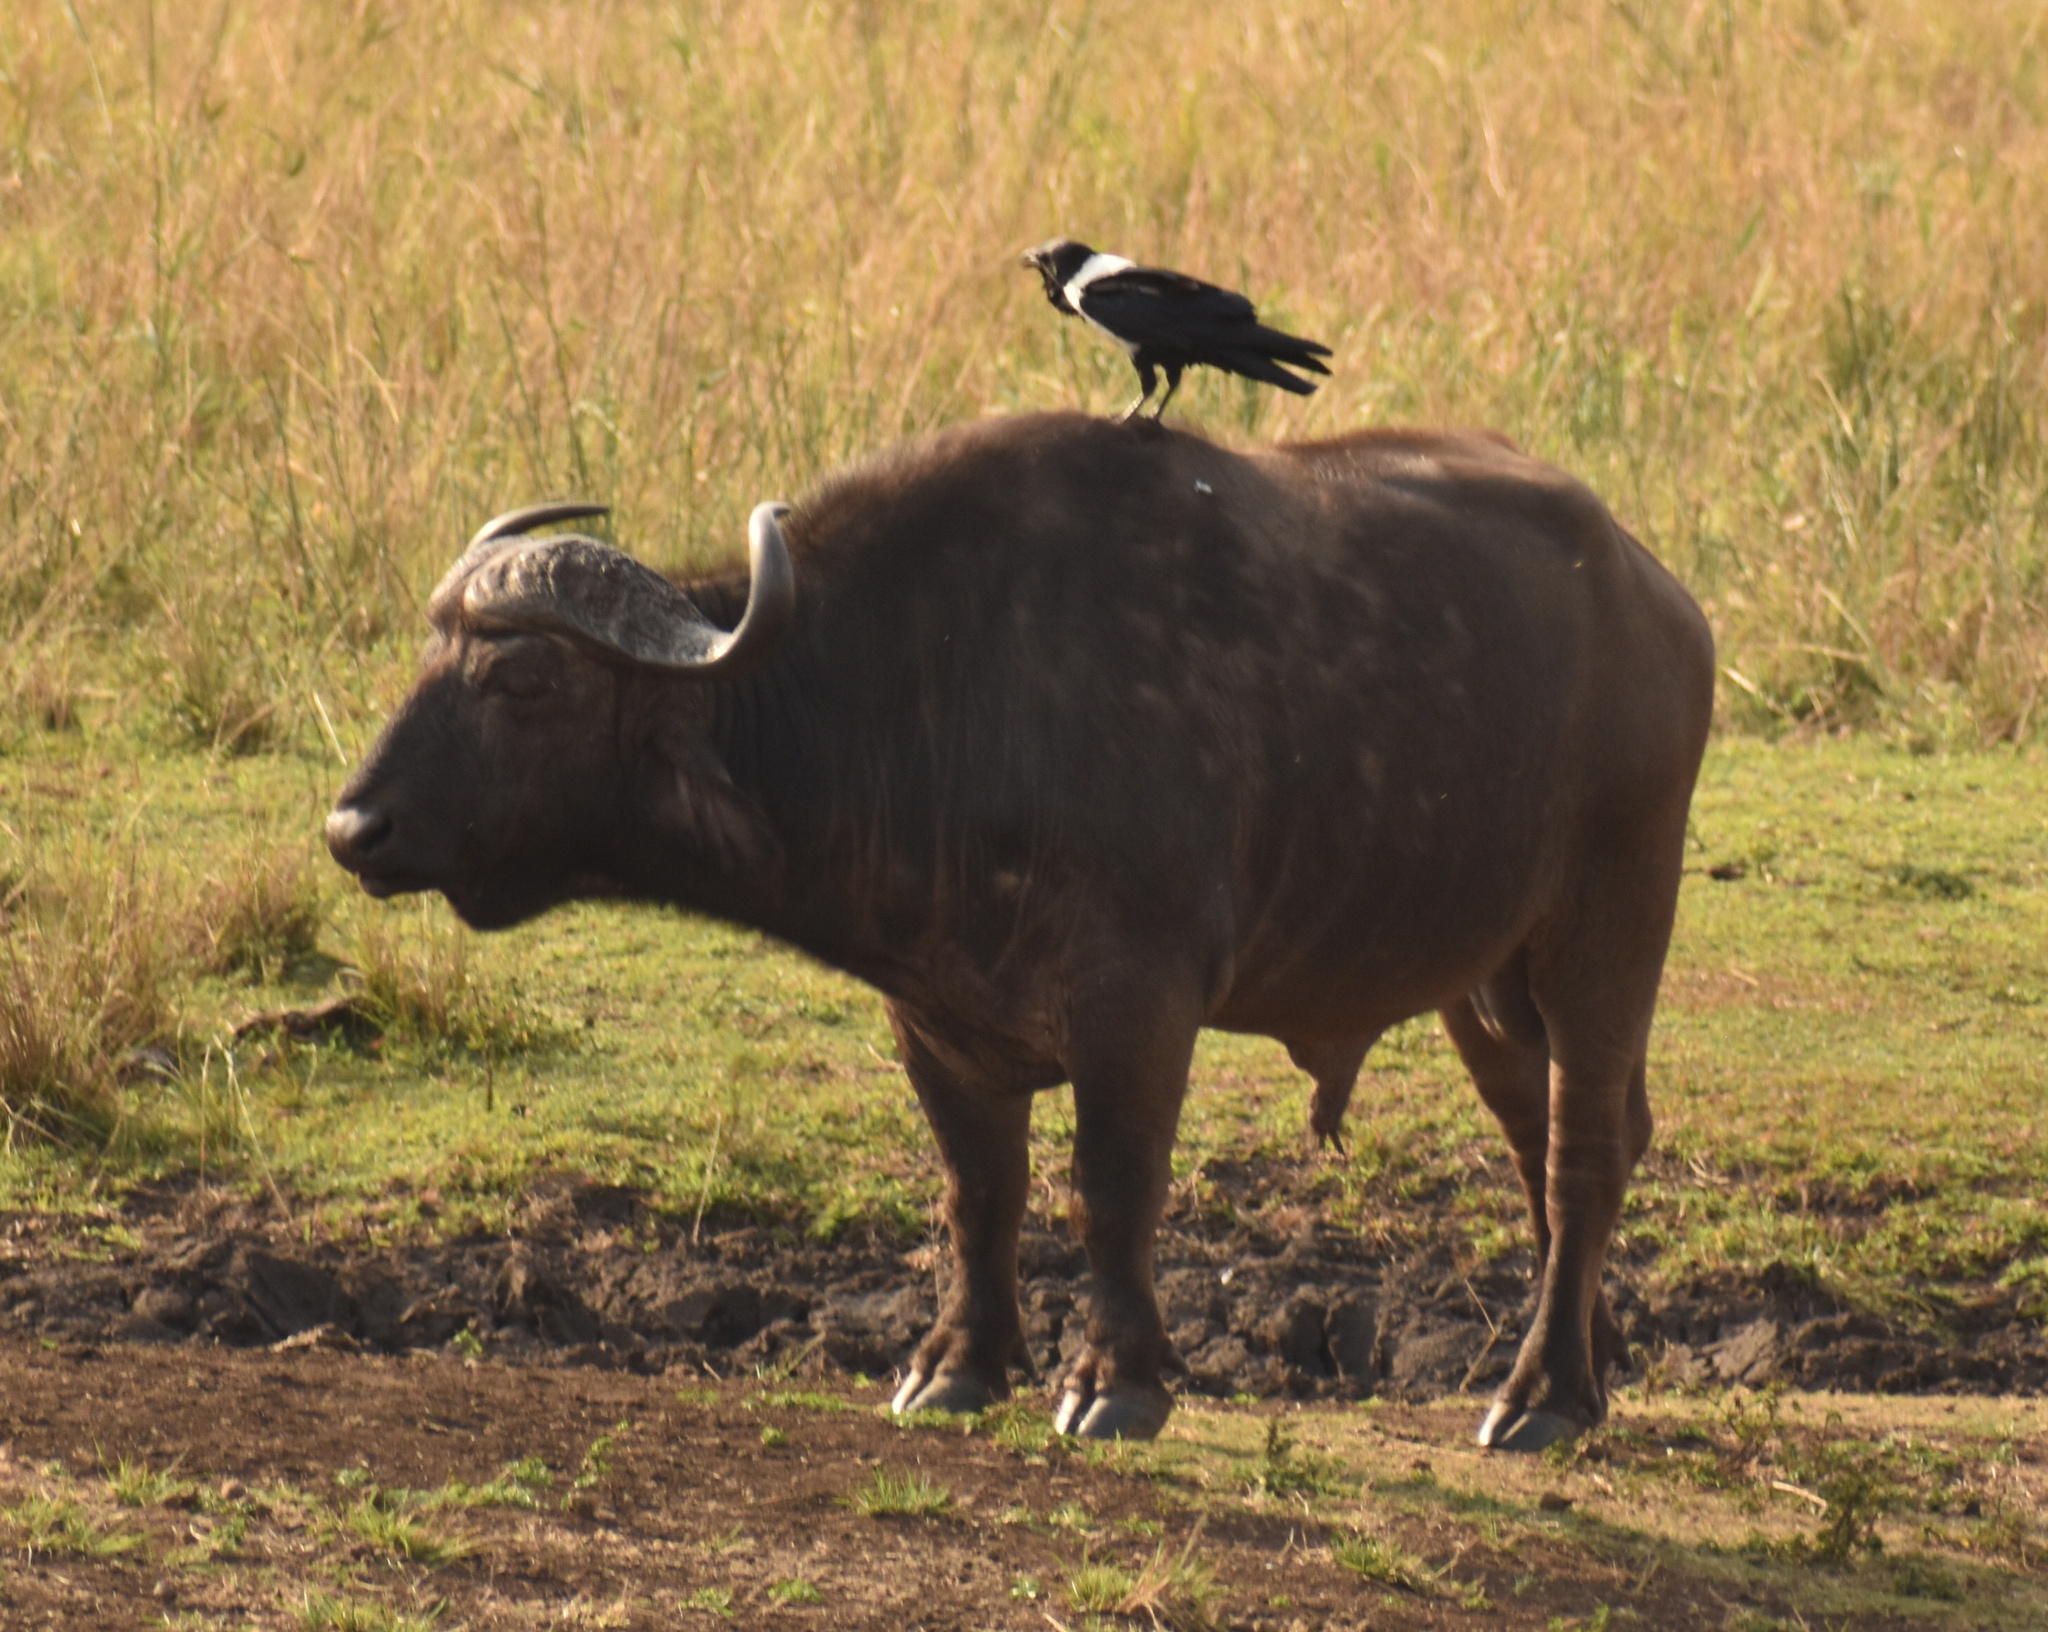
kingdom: Animalia
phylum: Chordata
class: Mammalia
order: Artiodactyla
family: Bovidae
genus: Syncerus
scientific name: Syncerus caffer
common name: African buffalo
